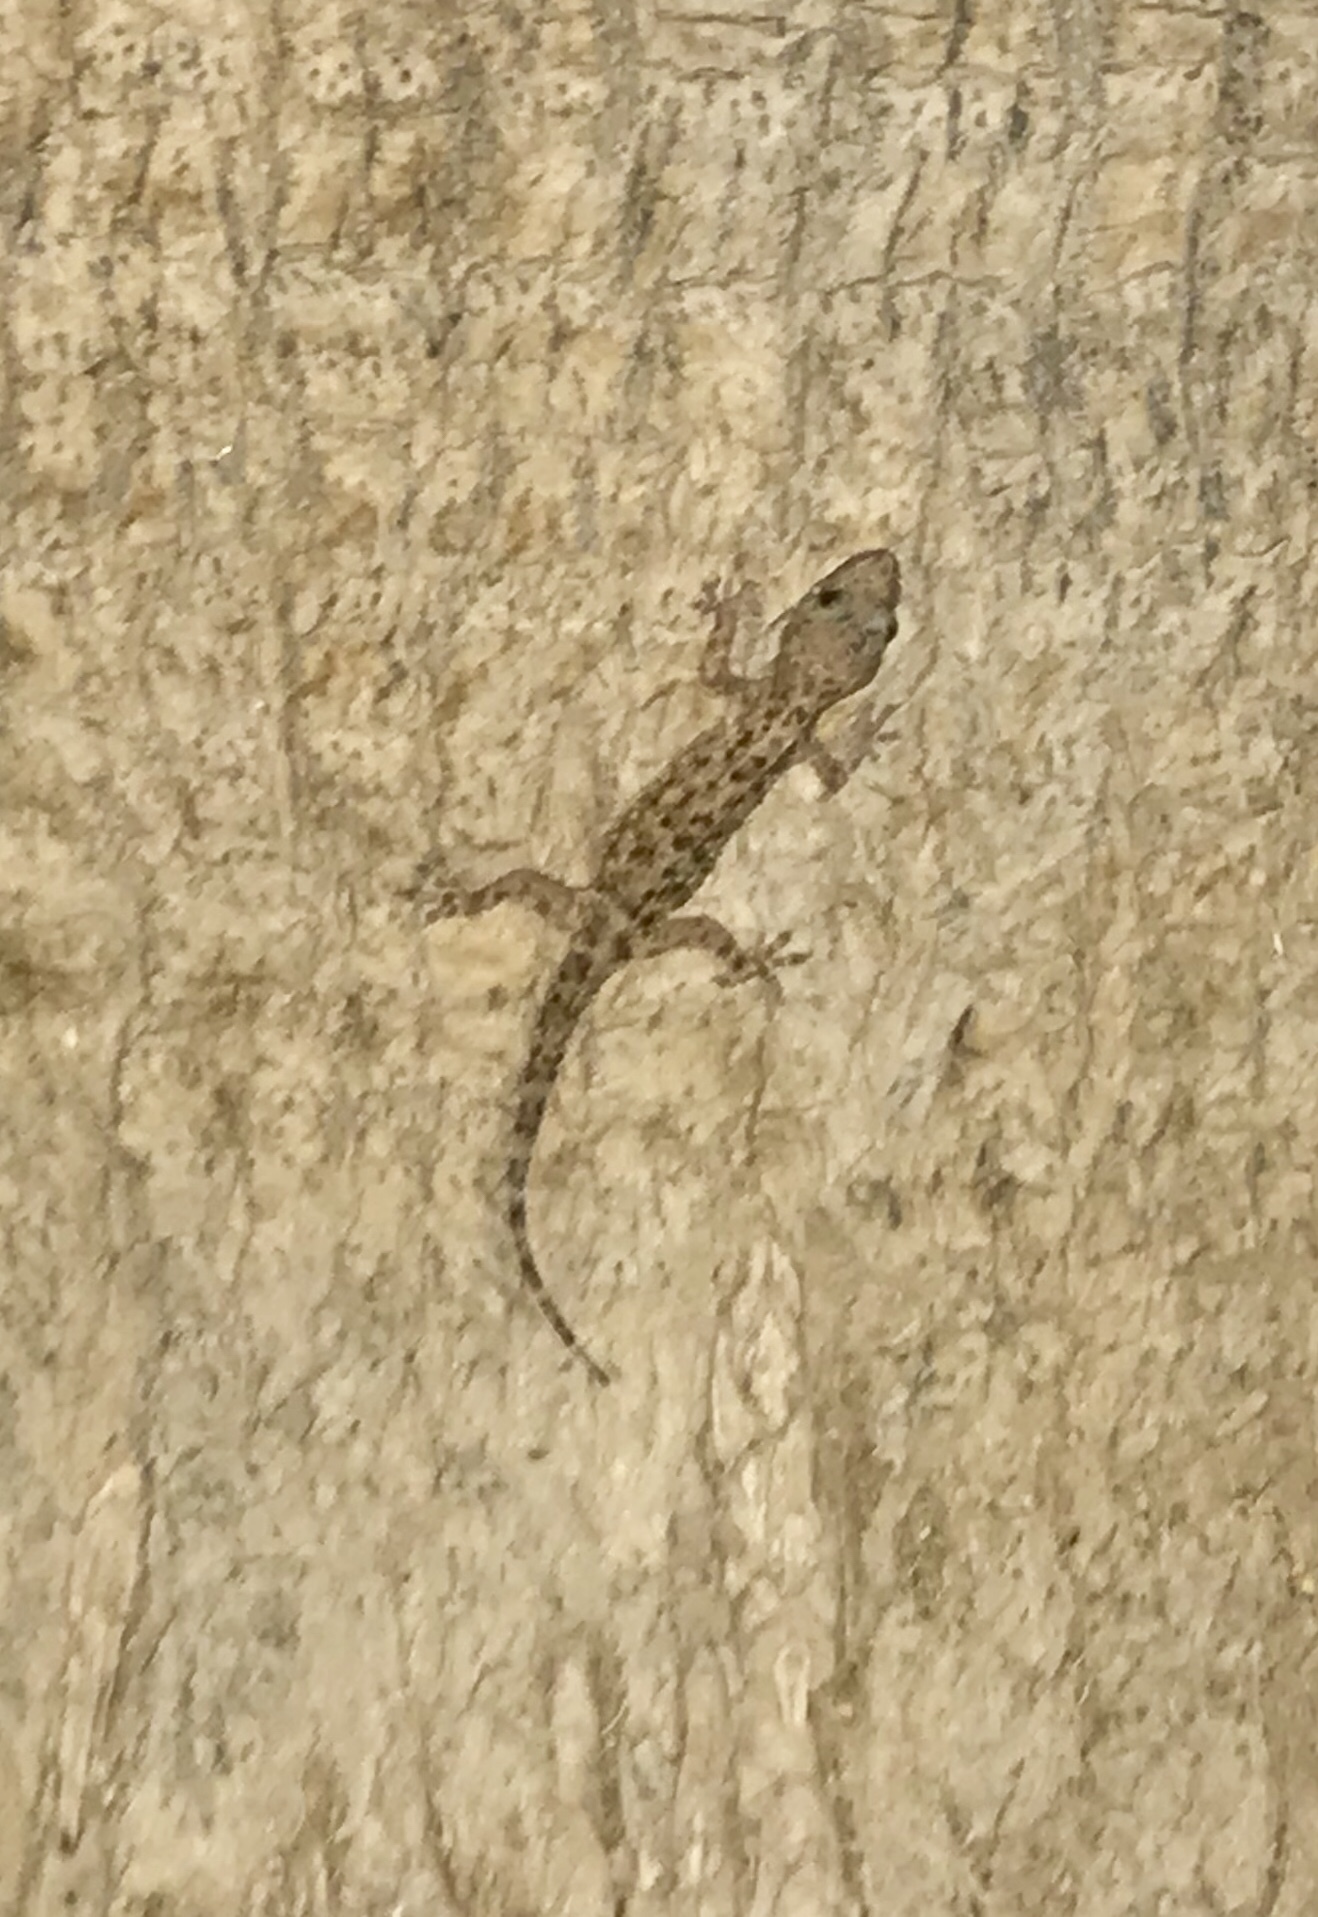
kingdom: Animalia
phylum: Chordata
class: Squamata
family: Gekkonidae
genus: Hemidactylus
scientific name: Hemidactylus turcicus
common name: Turkish gecko
